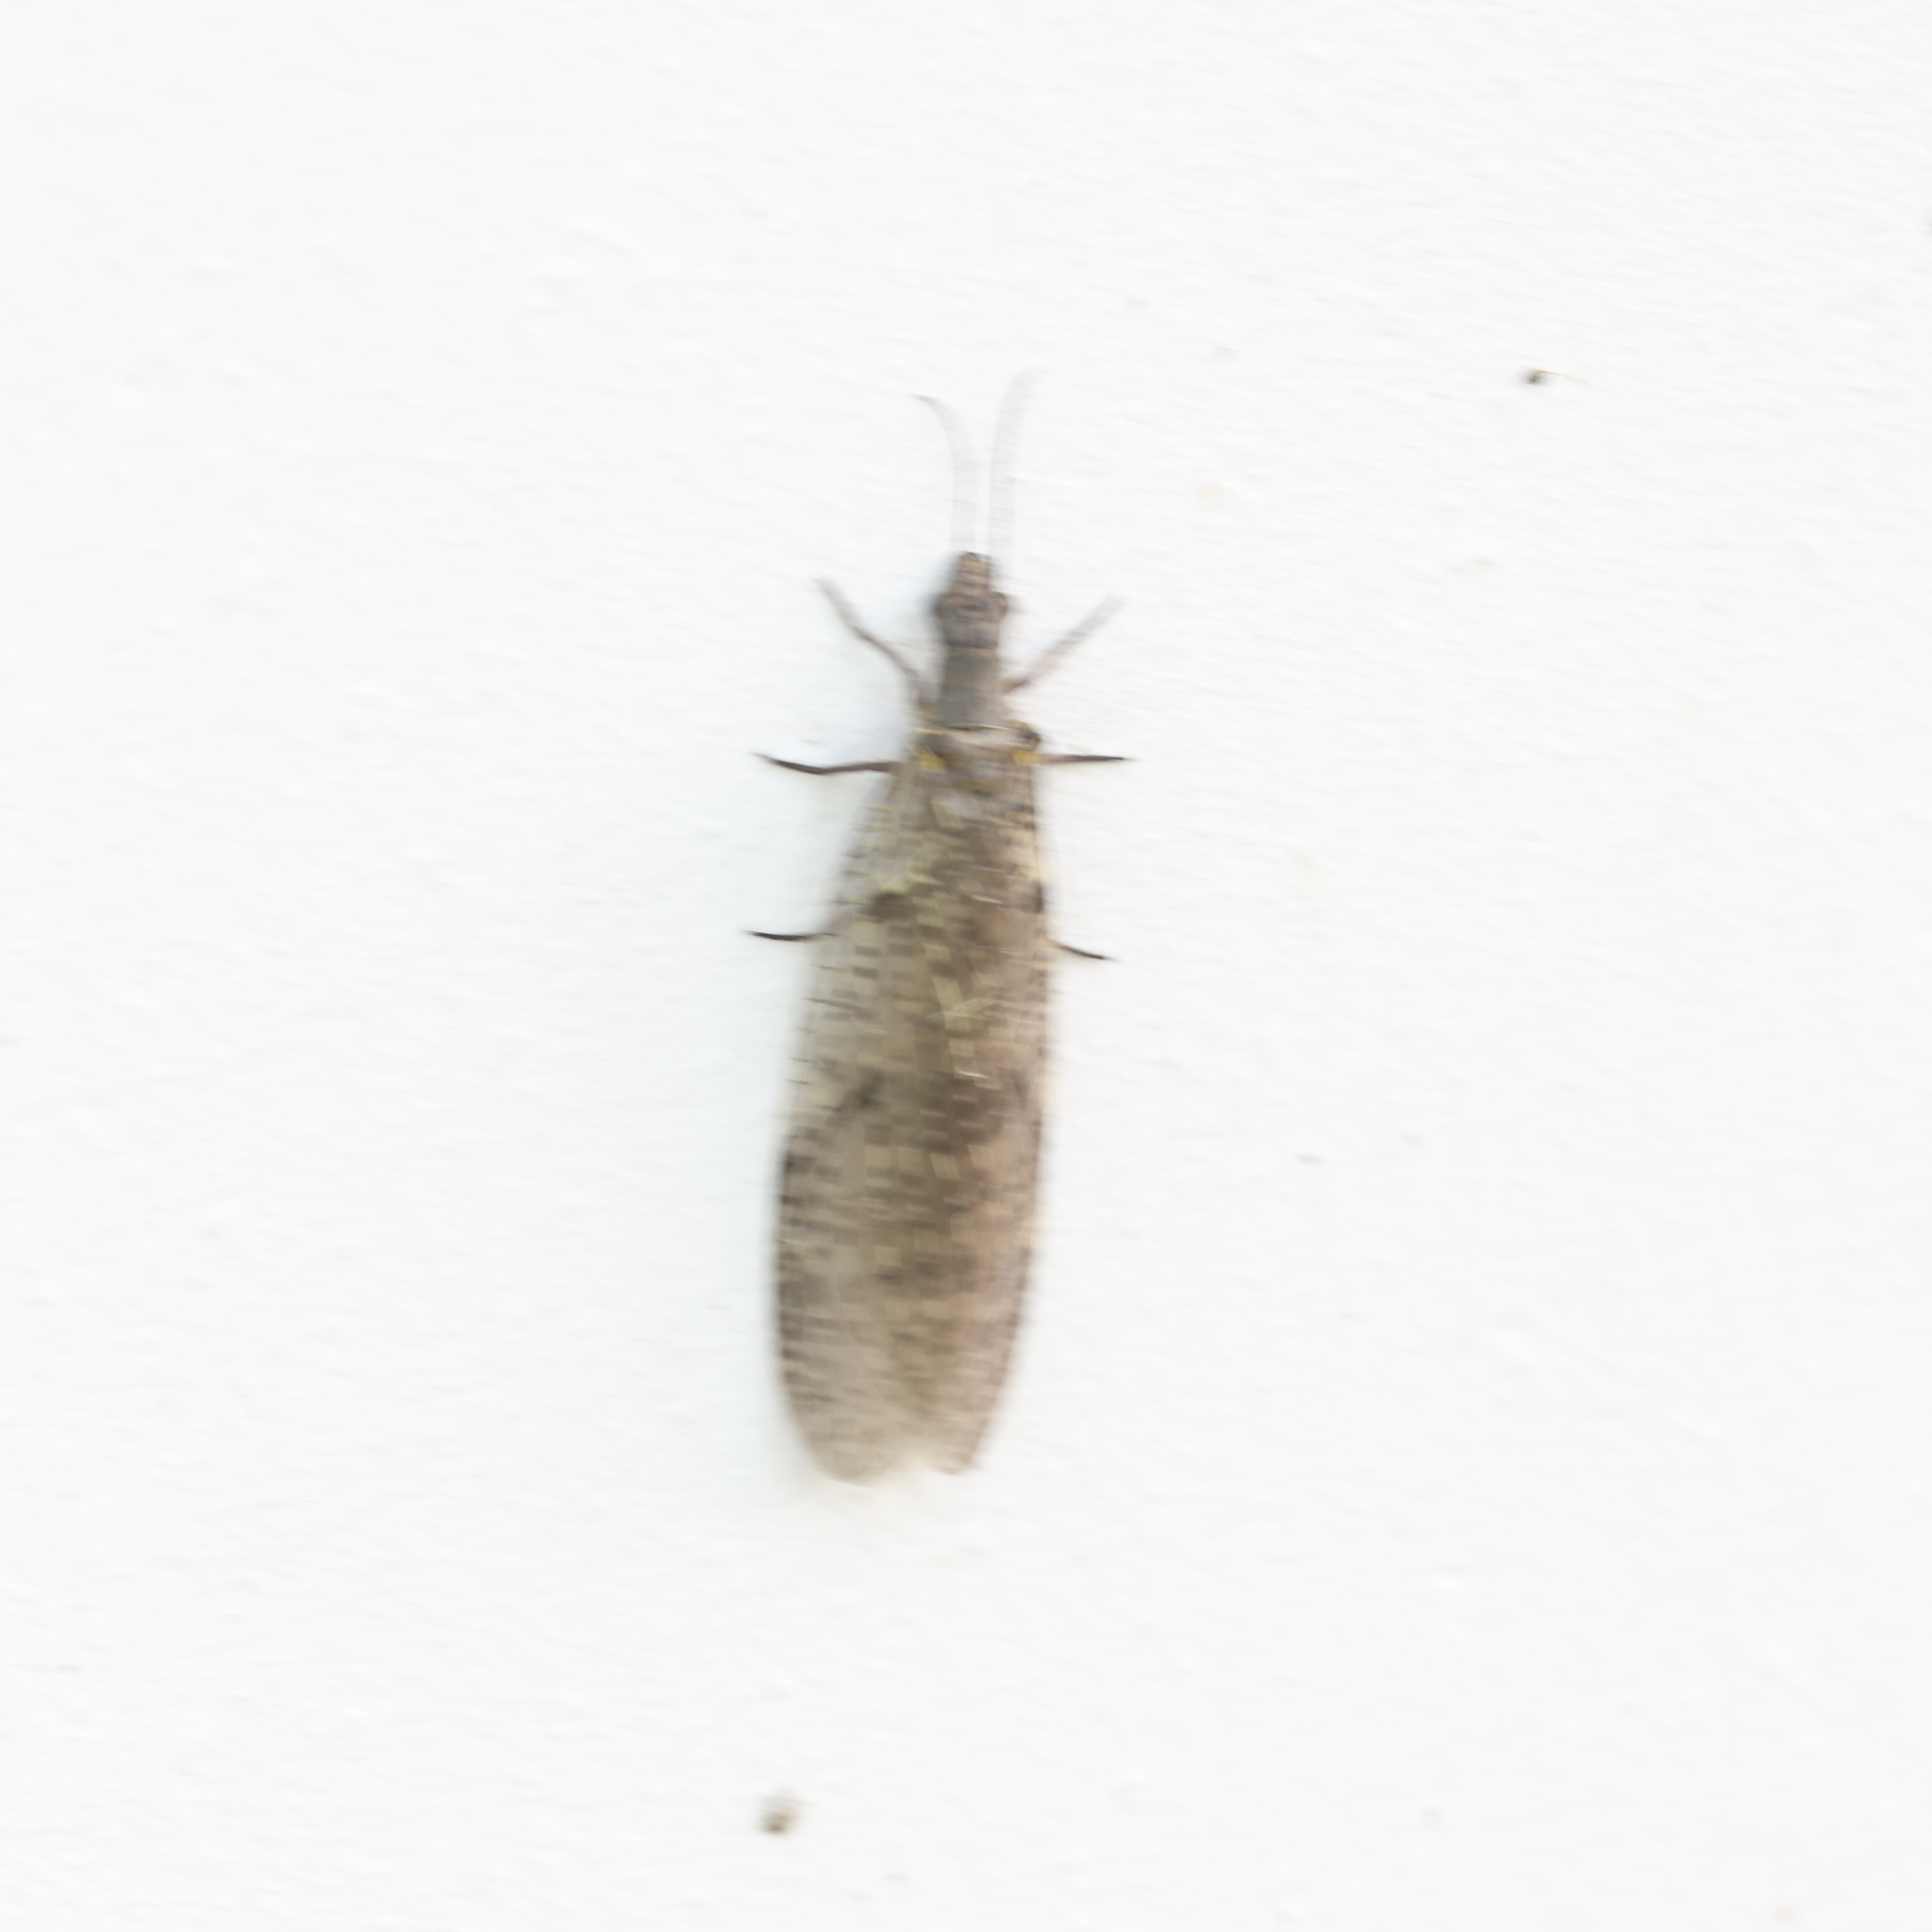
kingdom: Animalia
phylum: Arthropoda
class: Insecta
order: Megaloptera
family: Corydalidae
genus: Chauliodes
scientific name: Chauliodes rastricornis
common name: Spring fishfly
